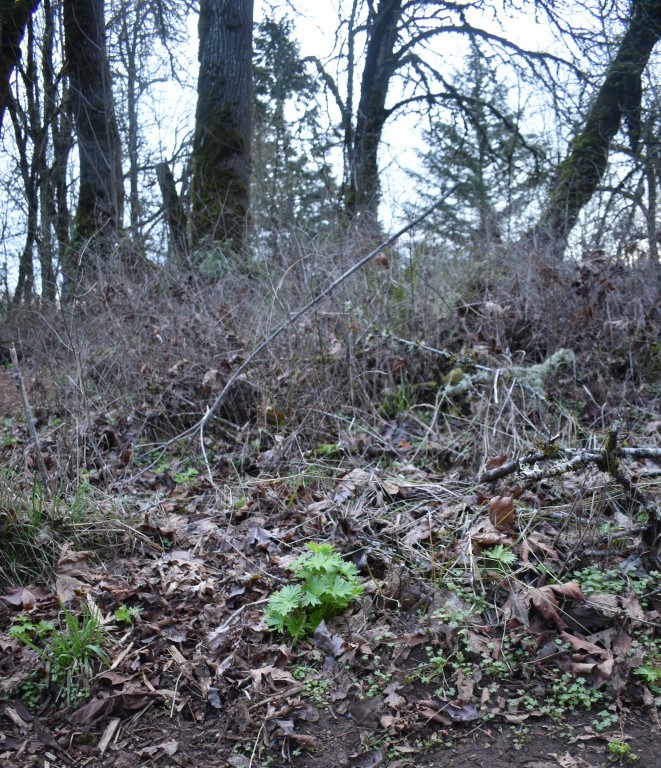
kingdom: Plantae
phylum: Tracheophyta
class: Magnoliopsida
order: Ranunculales
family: Ranunculaceae
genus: Delphinium
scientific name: Delphinium trolliifolium
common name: Cow-poison
